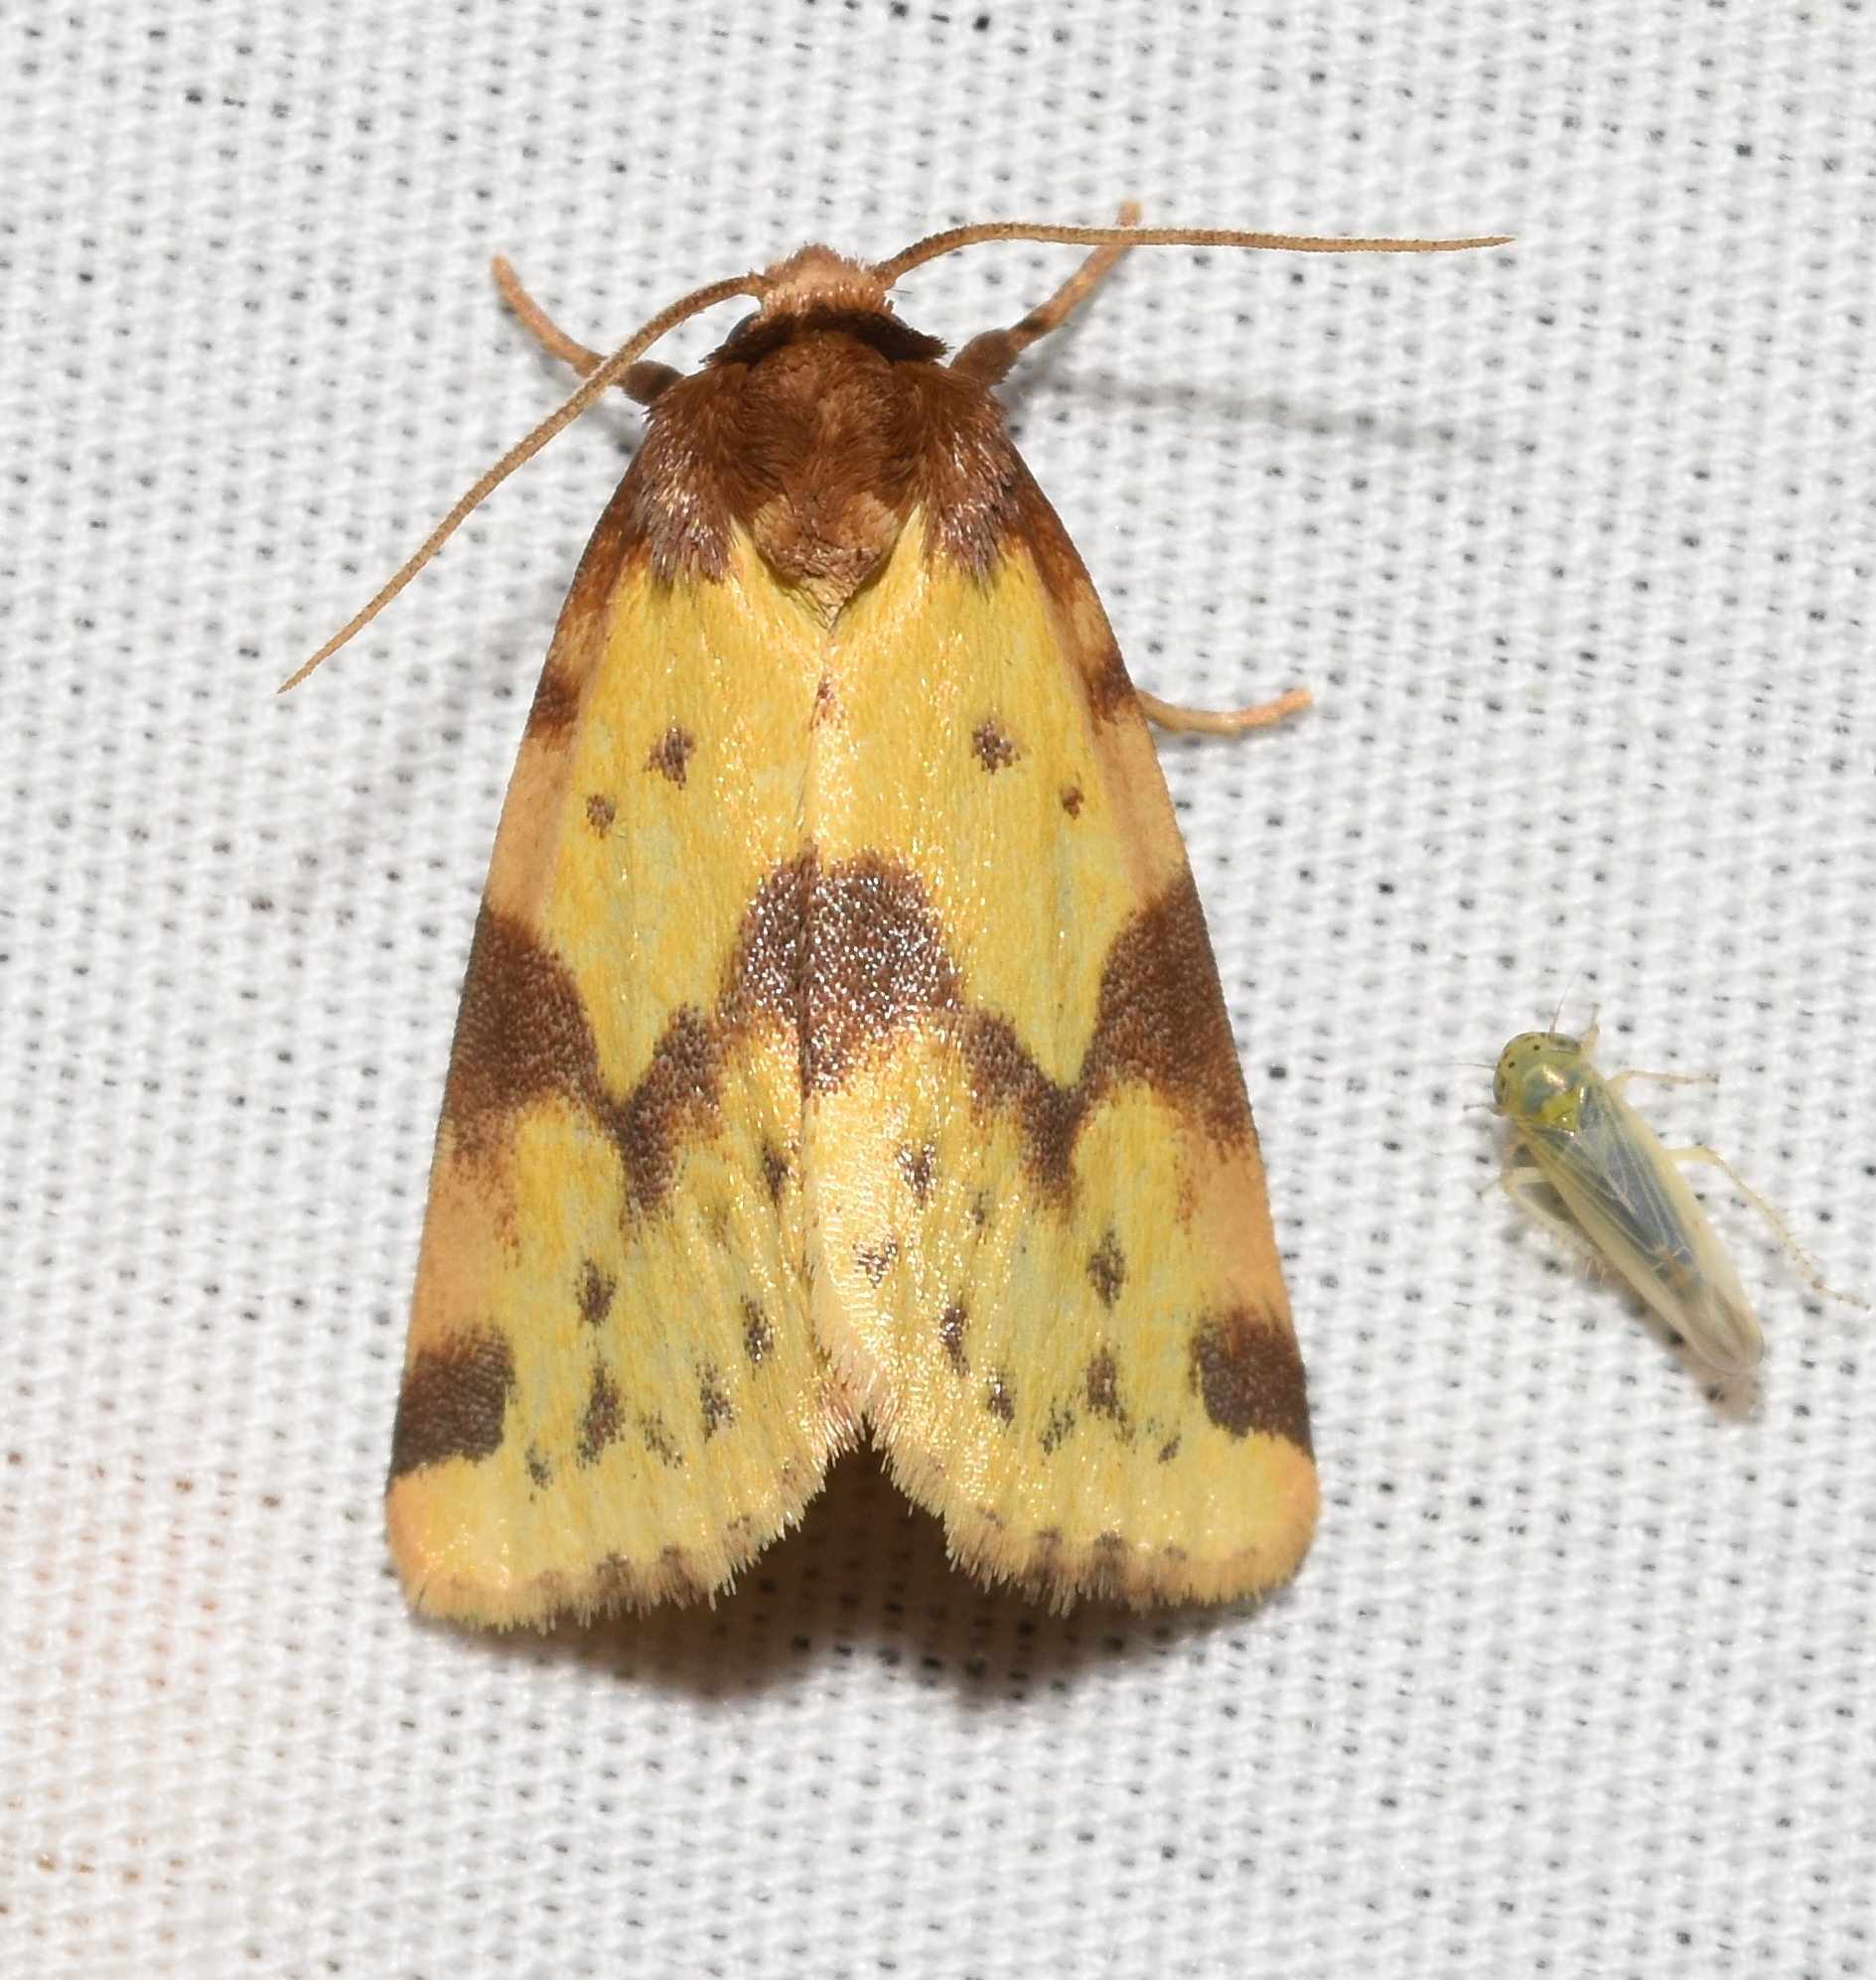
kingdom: Animalia
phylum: Arthropoda
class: Insecta
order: Lepidoptera
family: Noctuidae
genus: Azenia
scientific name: Azenia obtusa
